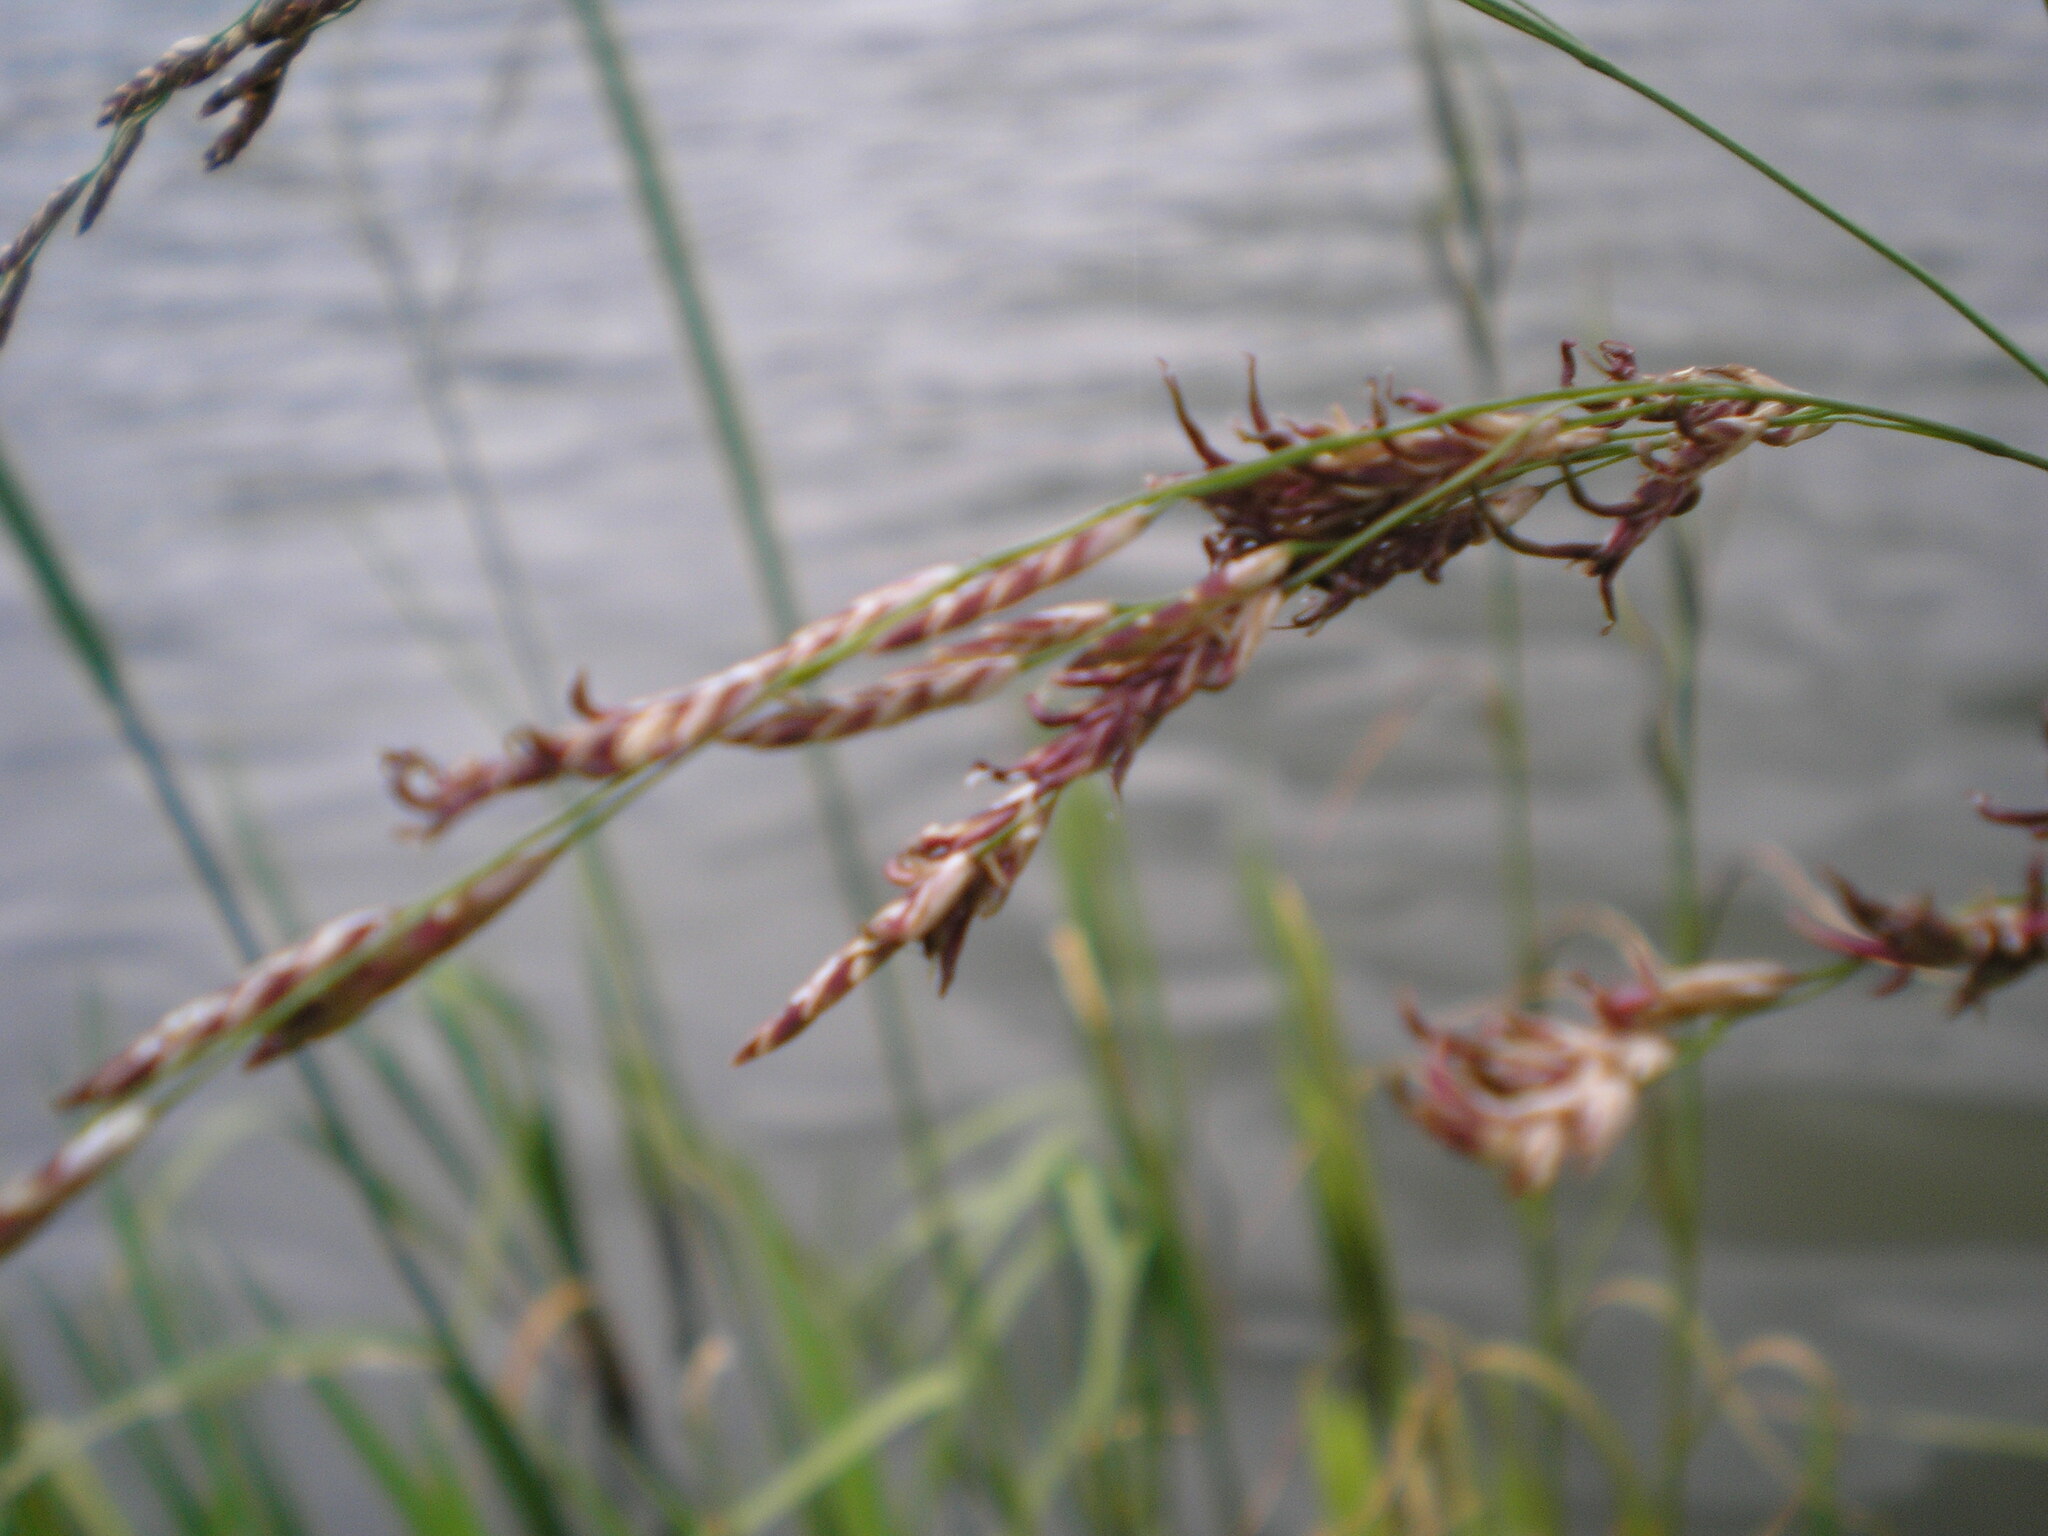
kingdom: Plantae
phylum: Tracheophyta
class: Liliopsida
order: Poales
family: Poaceae
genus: Glyceria
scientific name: Glyceria maxima
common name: Reed mannagrass
